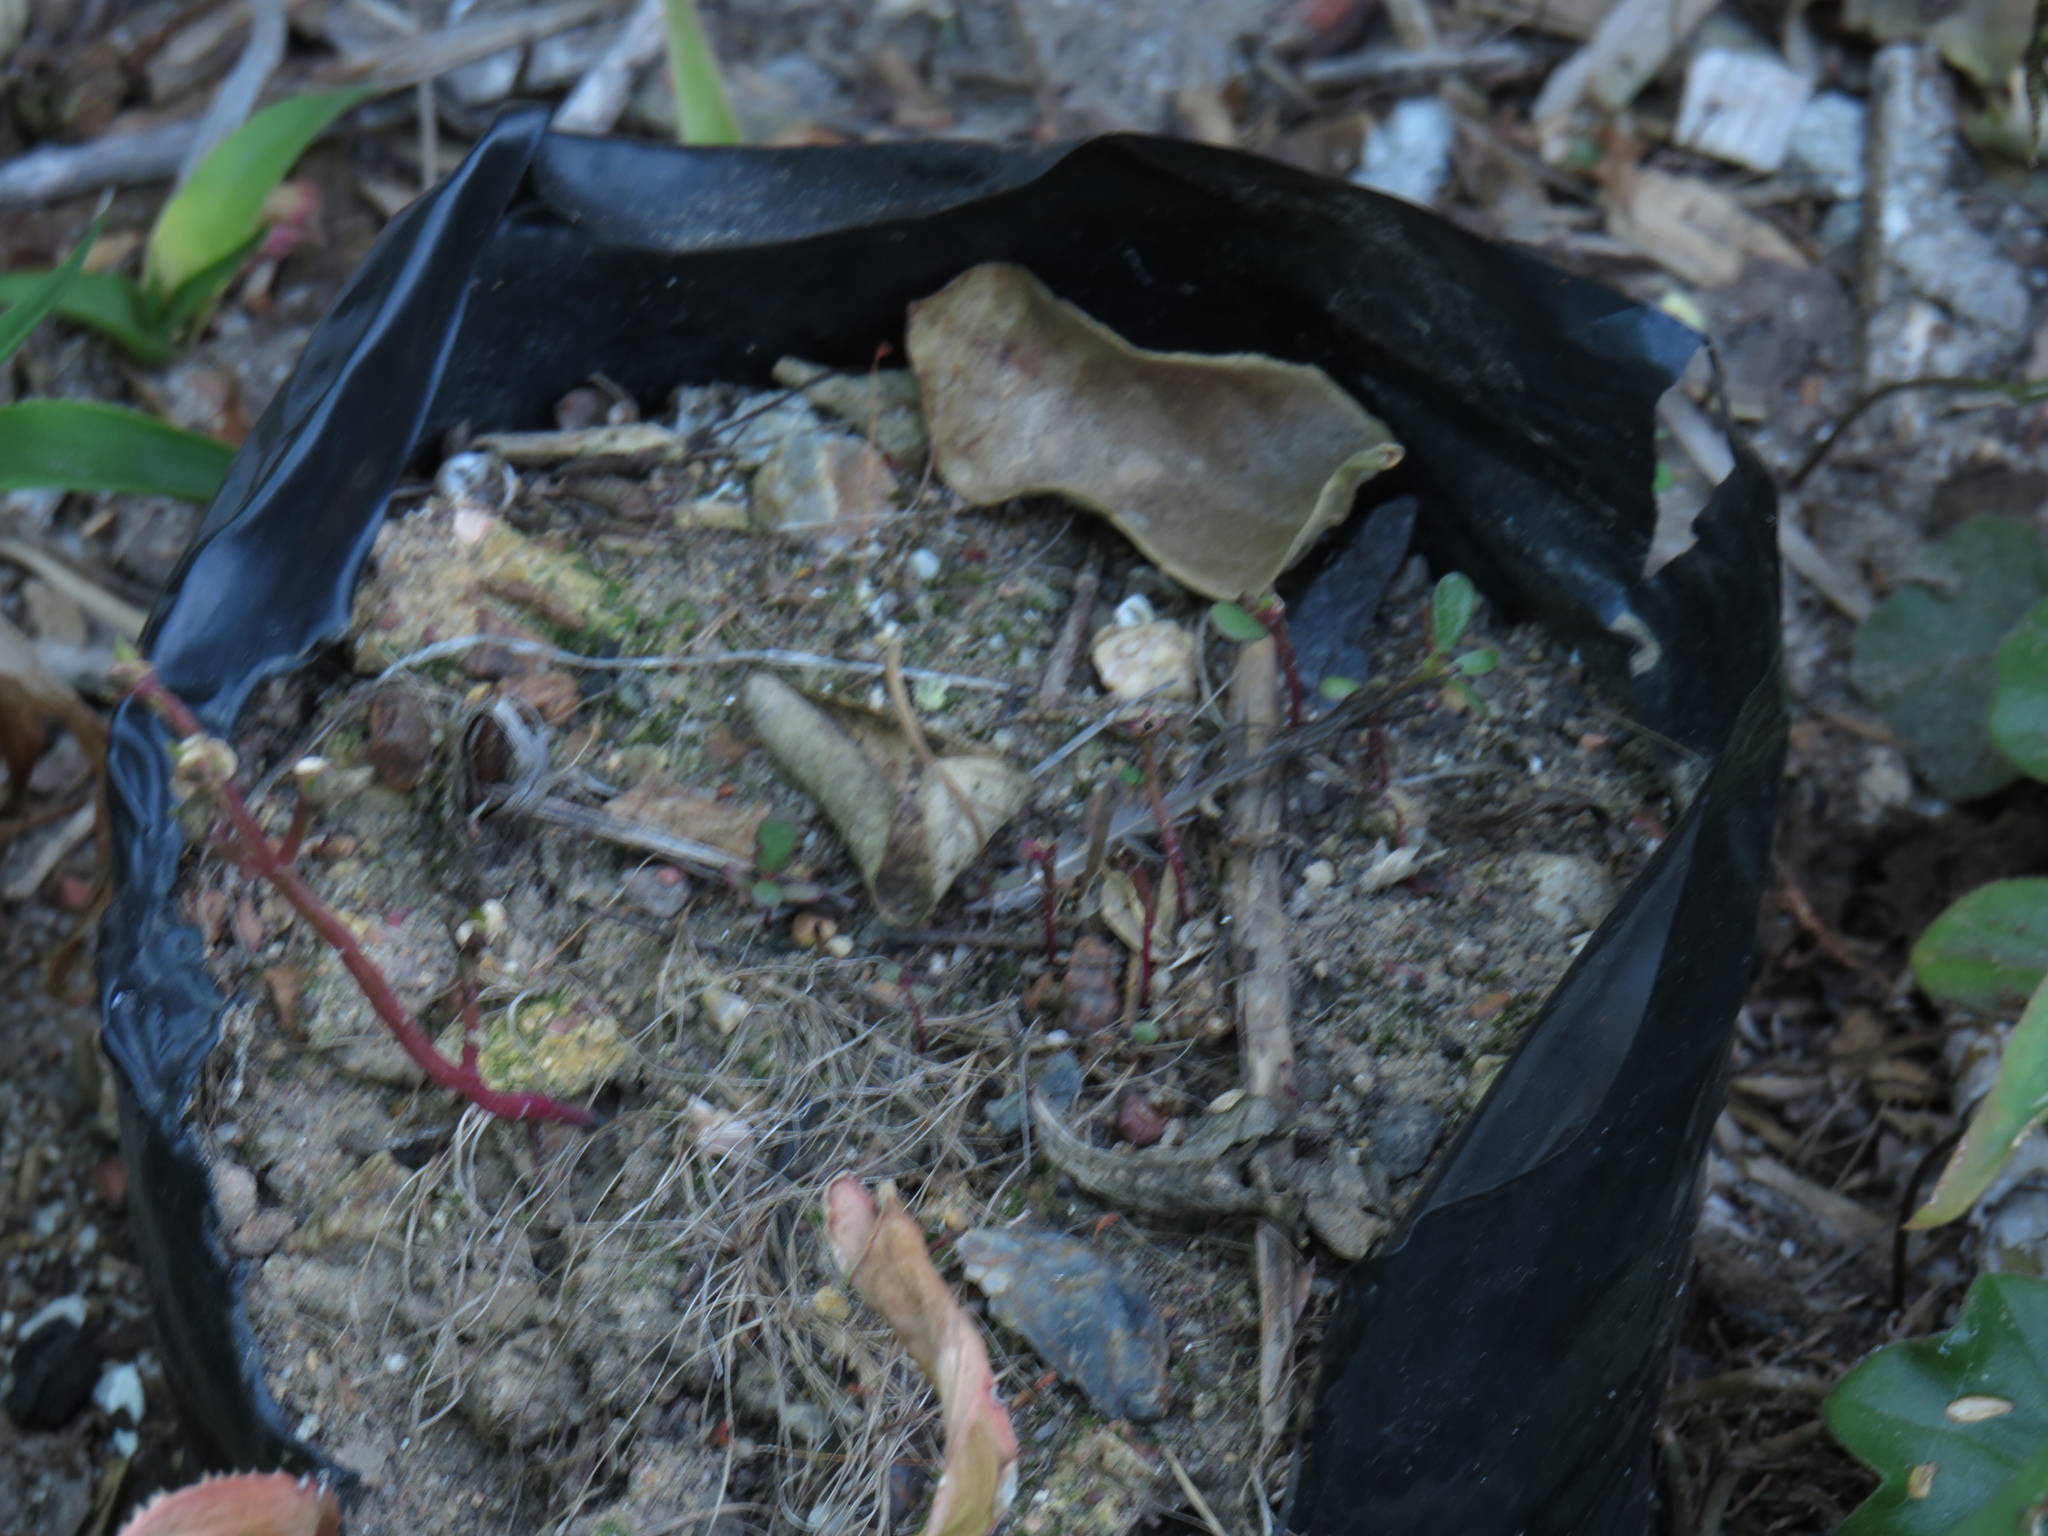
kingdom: Plantae
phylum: Tracheophyta
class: Magnoliopsida
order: Caryophyllales
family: Portulacaceae
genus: Portulaca
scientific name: Portulaca oleracea
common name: Common purslane
